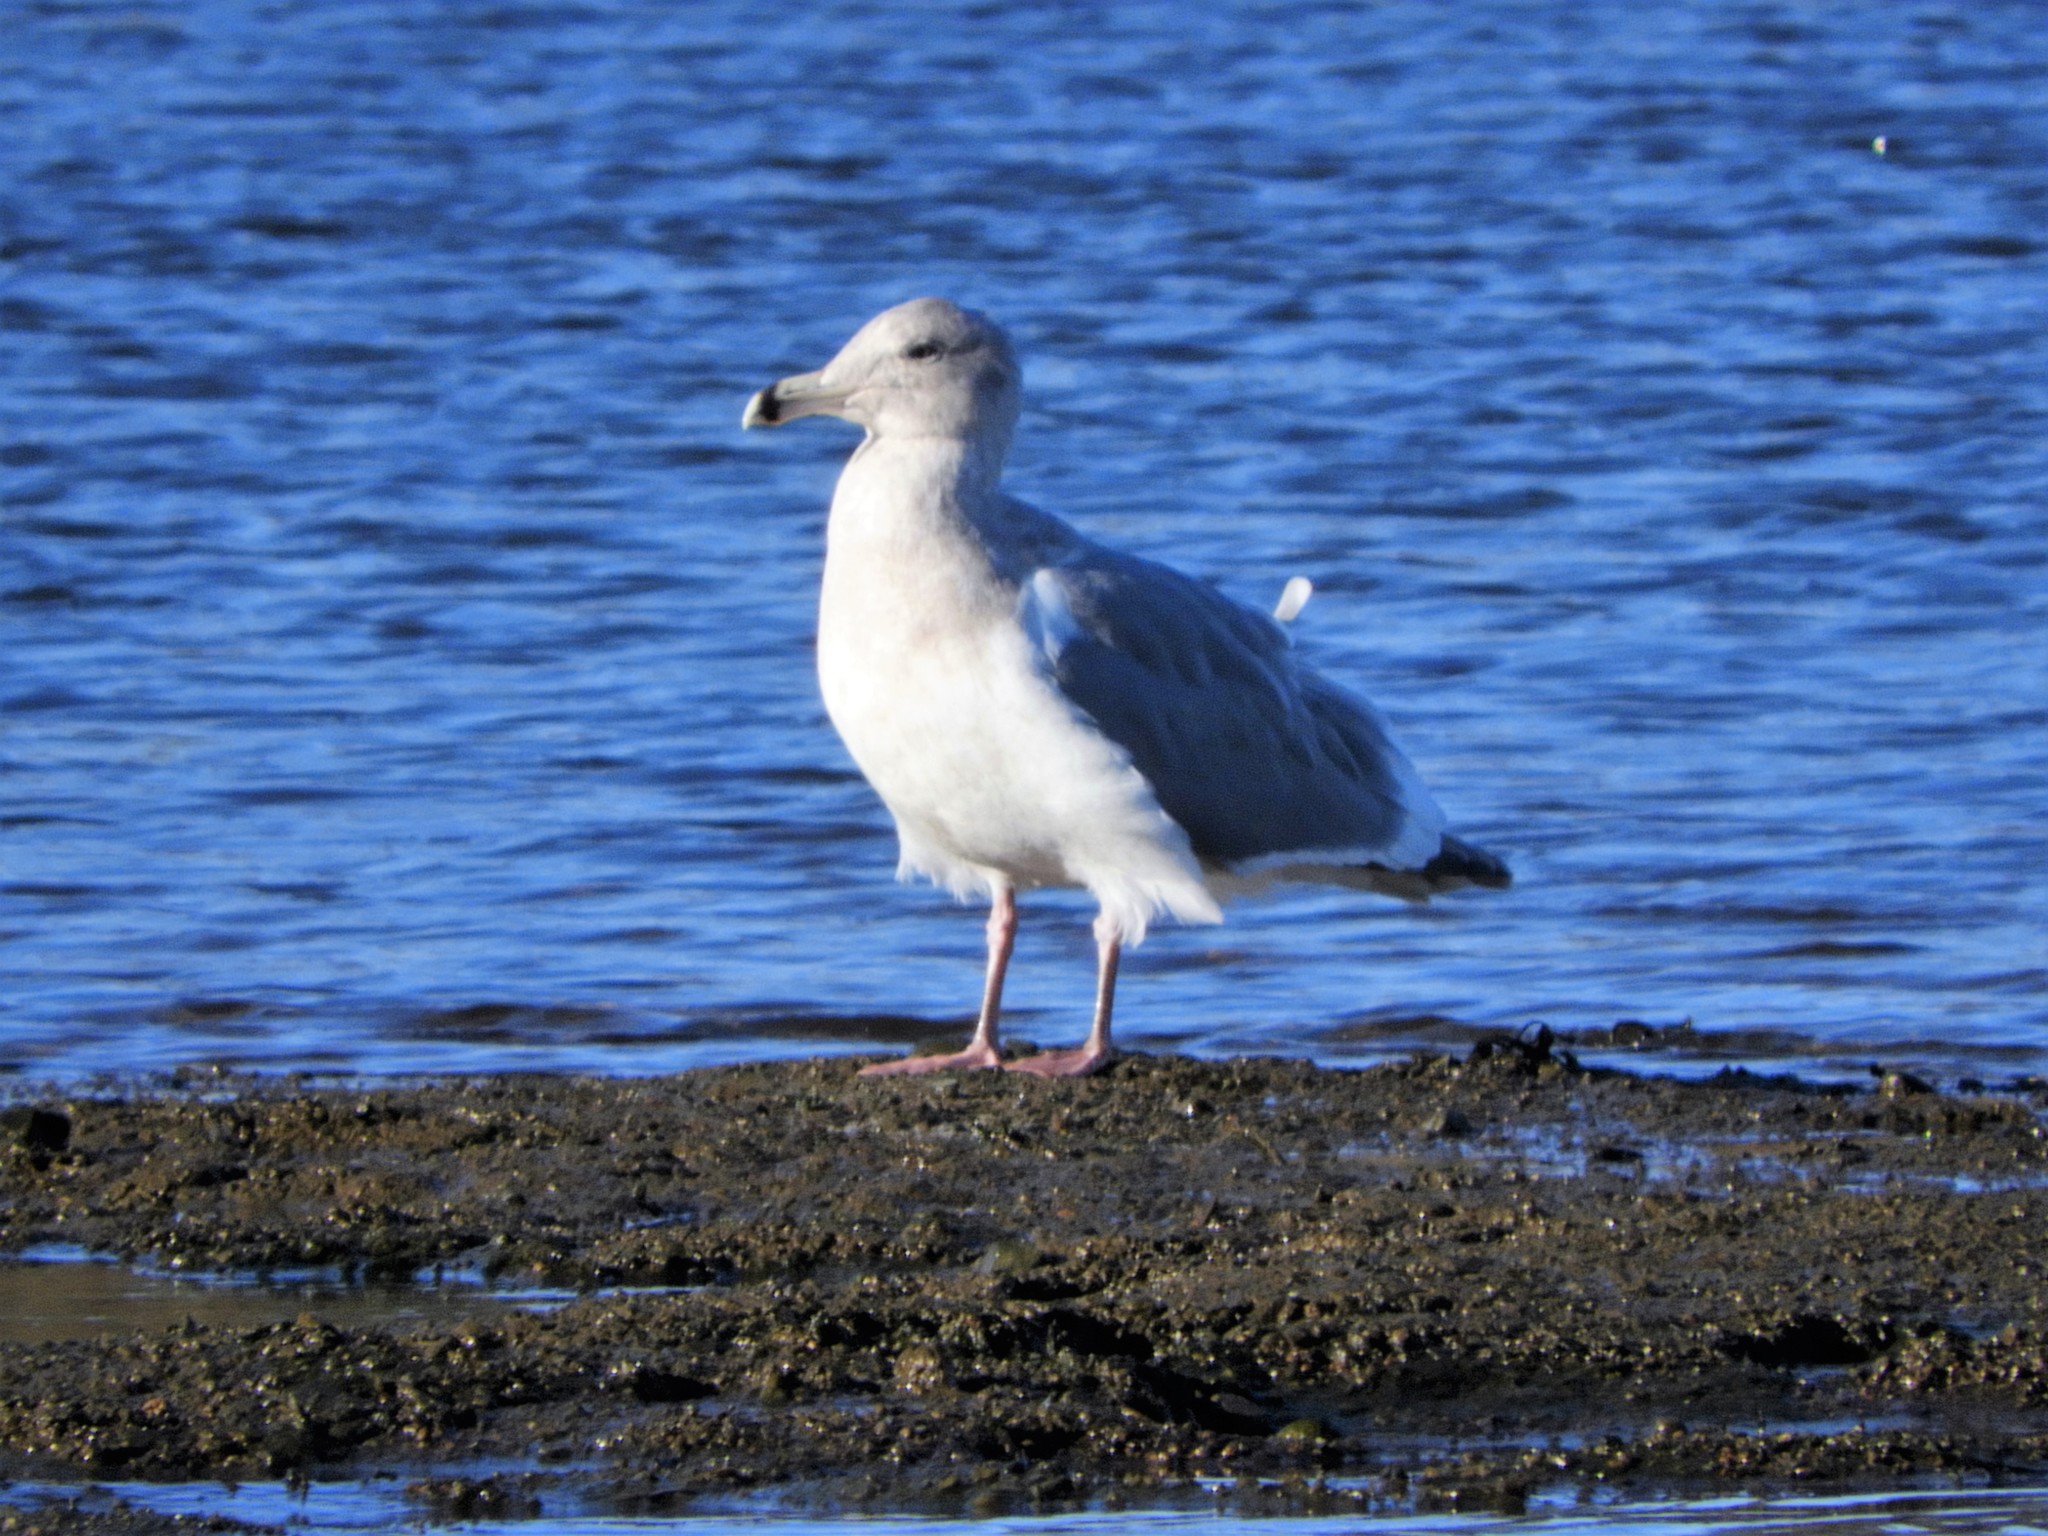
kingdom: Animalia
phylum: Chordata
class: Aves
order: Charadriiformes
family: Laridae
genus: Larus
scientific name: Larus
